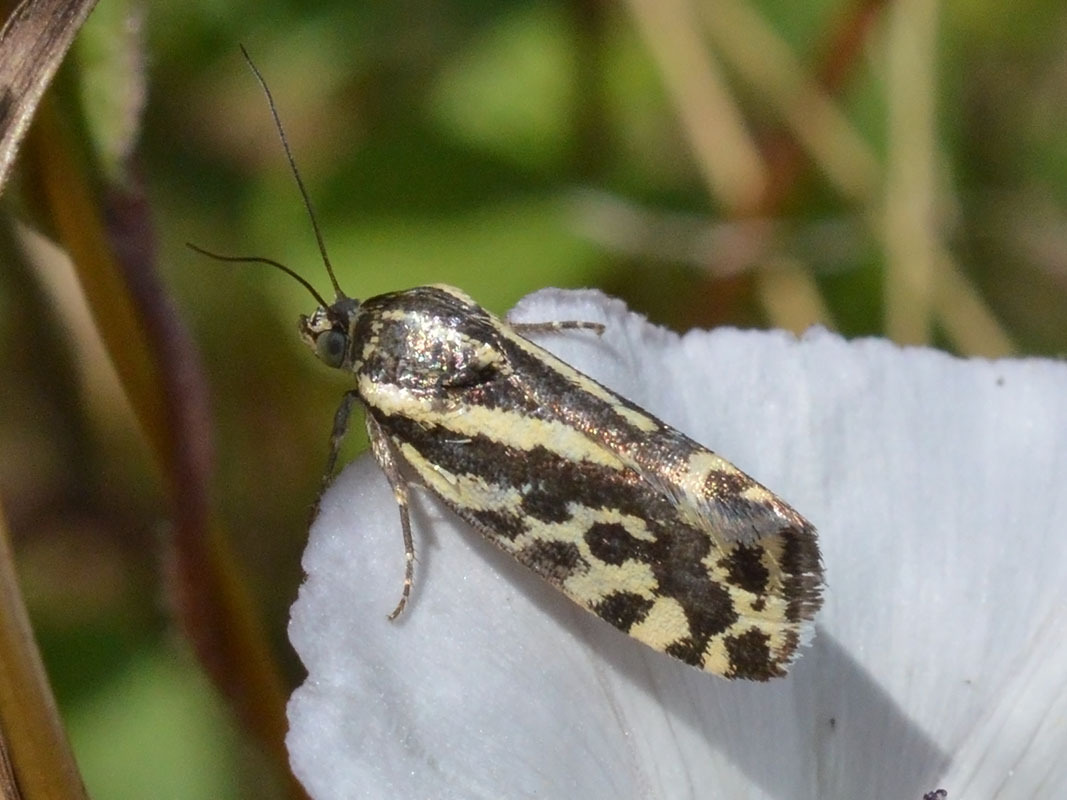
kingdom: Animalia
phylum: Arthropoda
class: Insecta
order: Lepidoptera
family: Noctuidae
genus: Acontia
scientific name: Acontia trabealis
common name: Spotted sulphur
